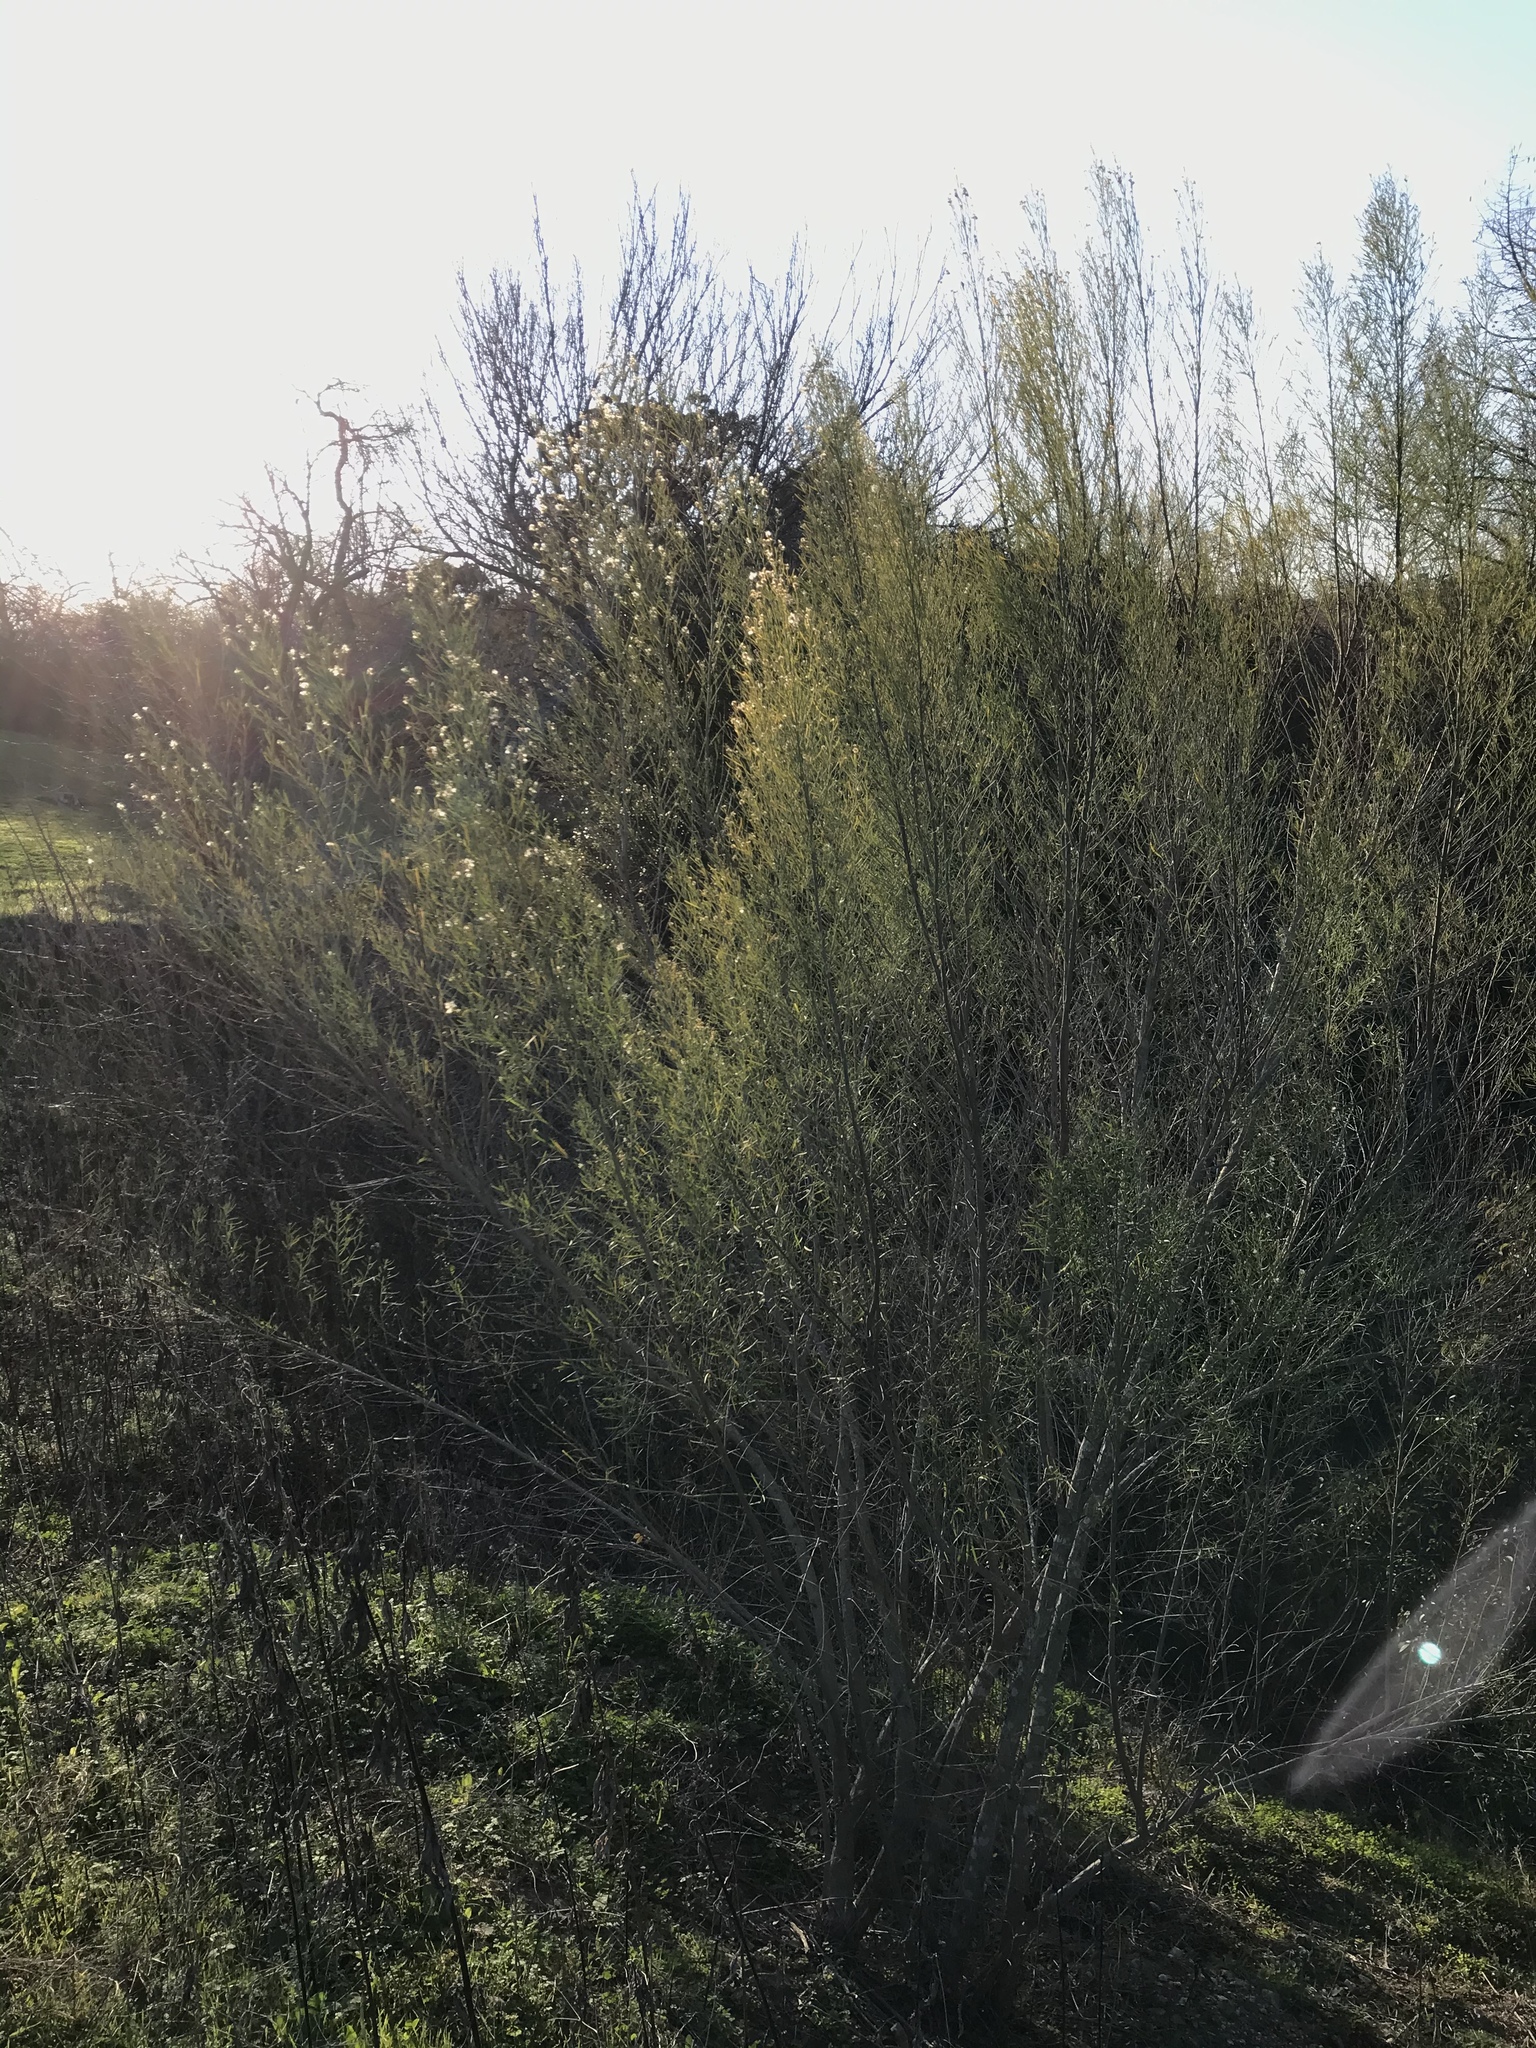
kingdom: Plantae
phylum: Tracheophyta
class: Magnoliopsida
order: Asterales
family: Asteraceae
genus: Baccharis
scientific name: Baccharis neglecta
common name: Roosevelt-weed
